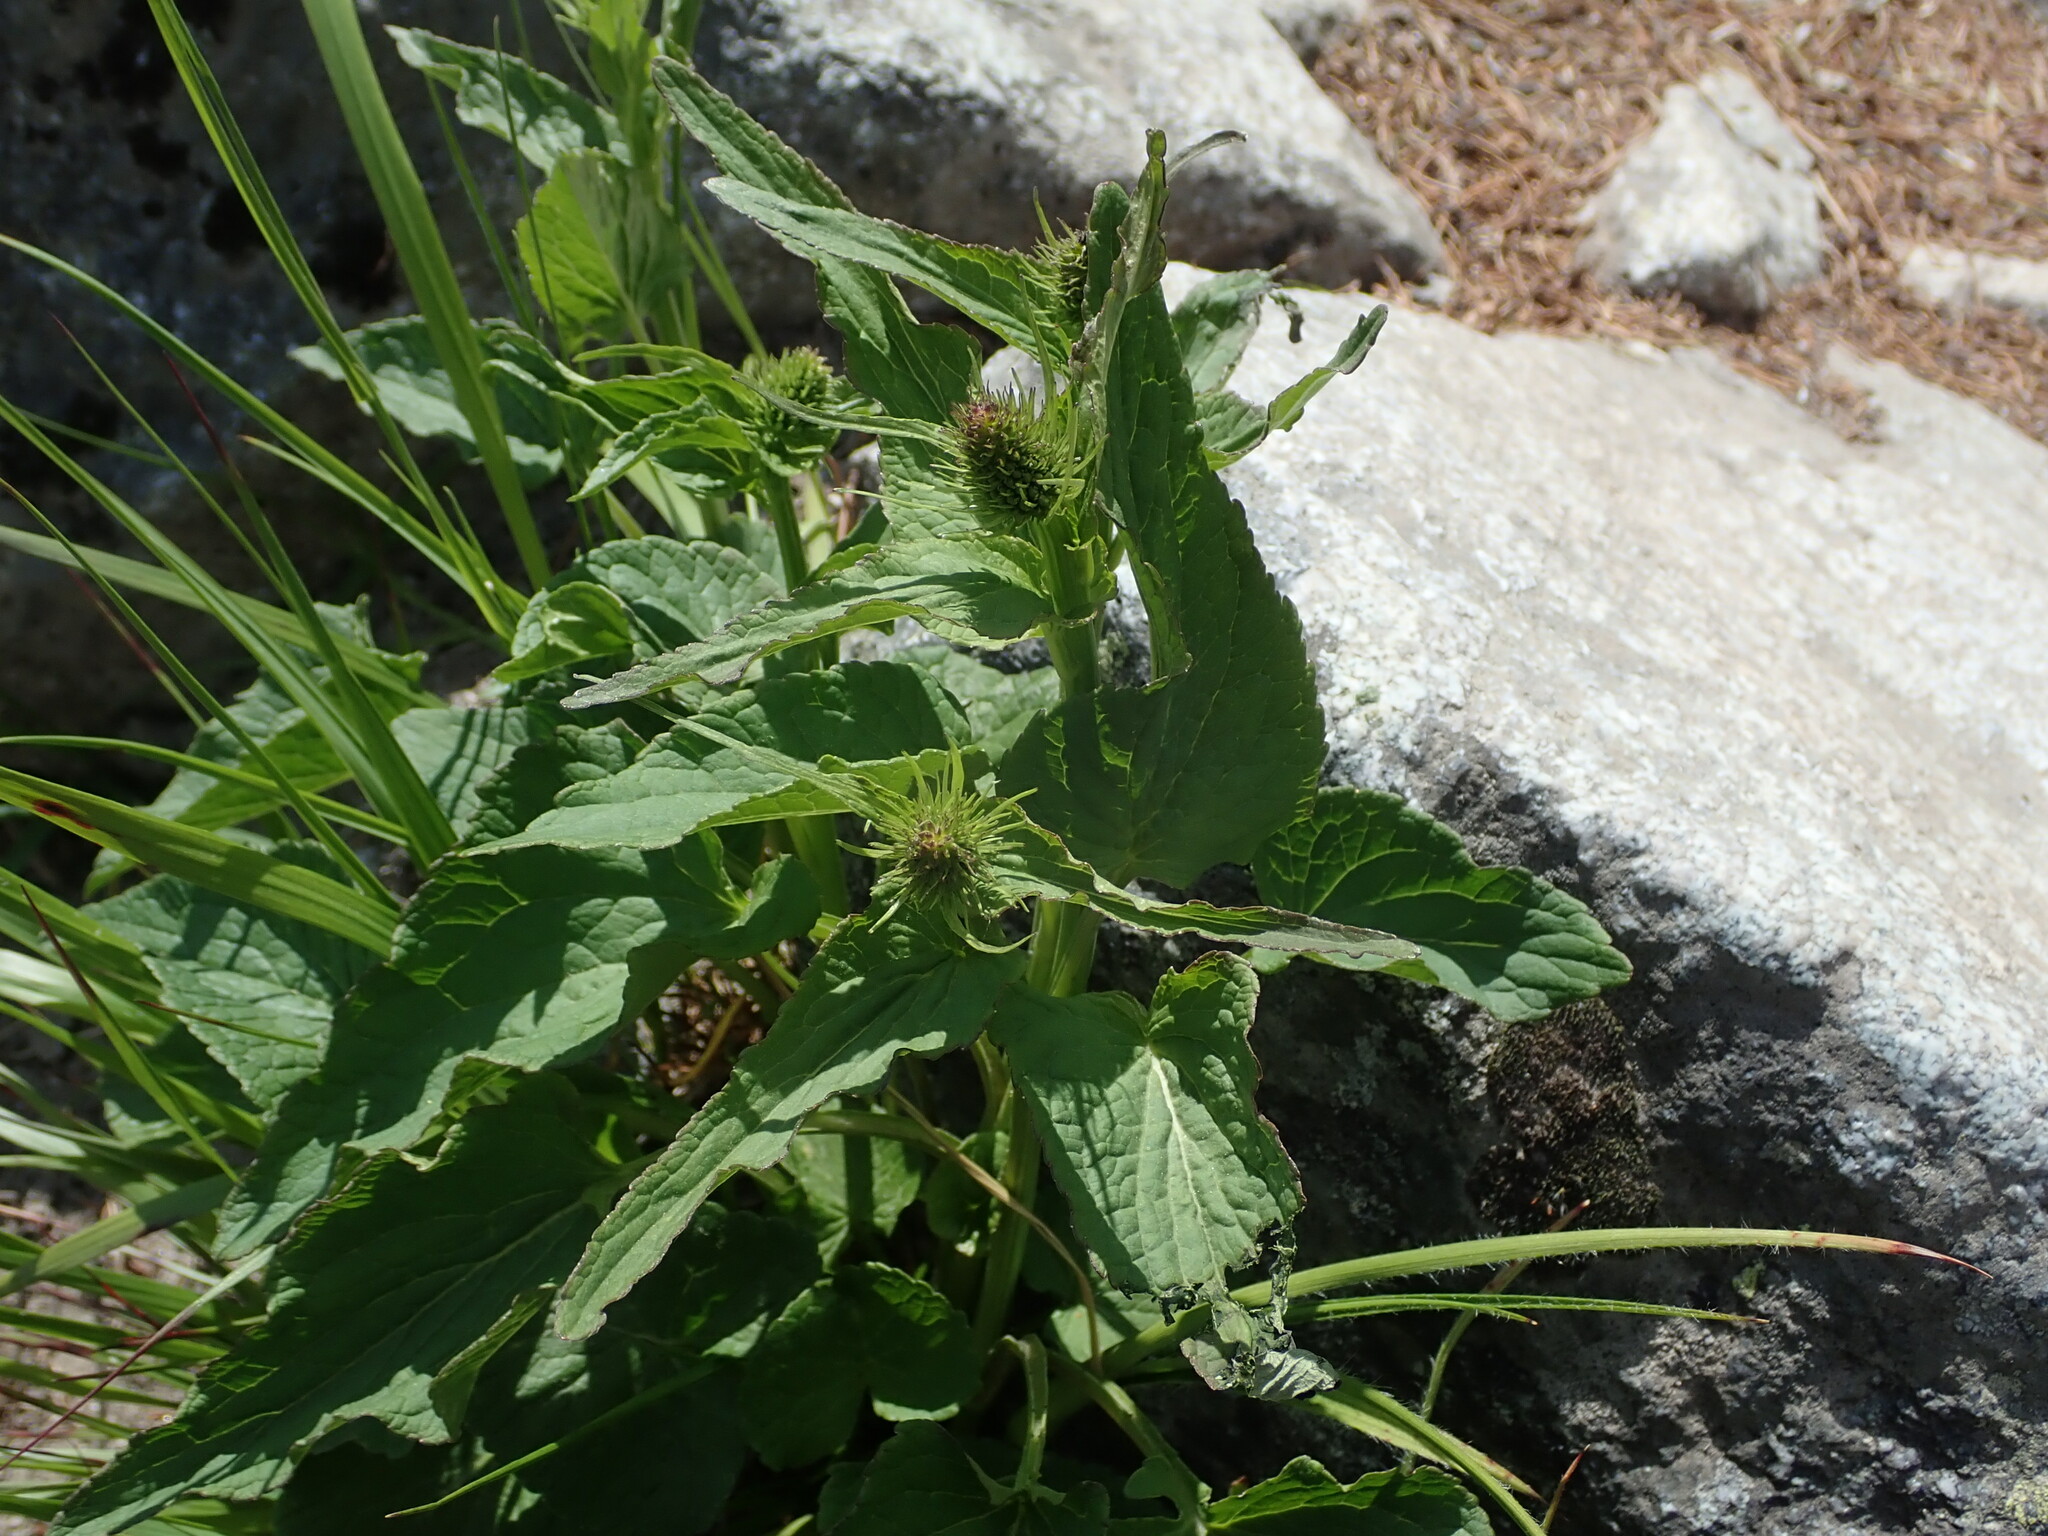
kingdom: Plantae
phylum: Tracheophyta
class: Magnoliopsida
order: Asterales
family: Campanulaceae
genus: Phyteuma
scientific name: Phyteuma spicatum
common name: Spiked rampion
